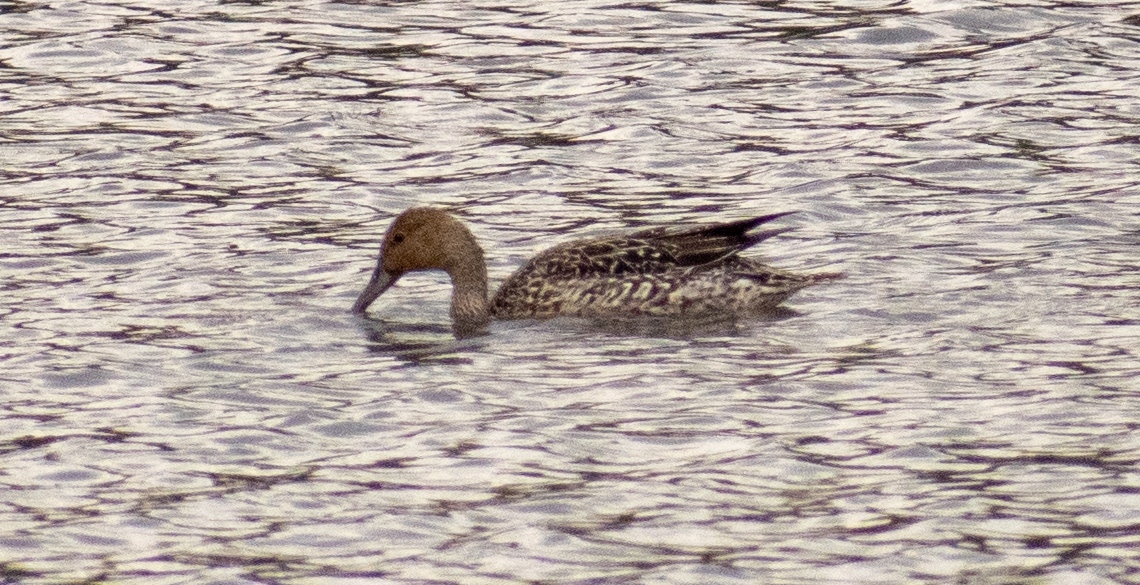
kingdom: Animalia
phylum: Chordata
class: Aves
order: Anseriformes
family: Anatidae
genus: Anas
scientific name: Anas acuta
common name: Northern pintail
